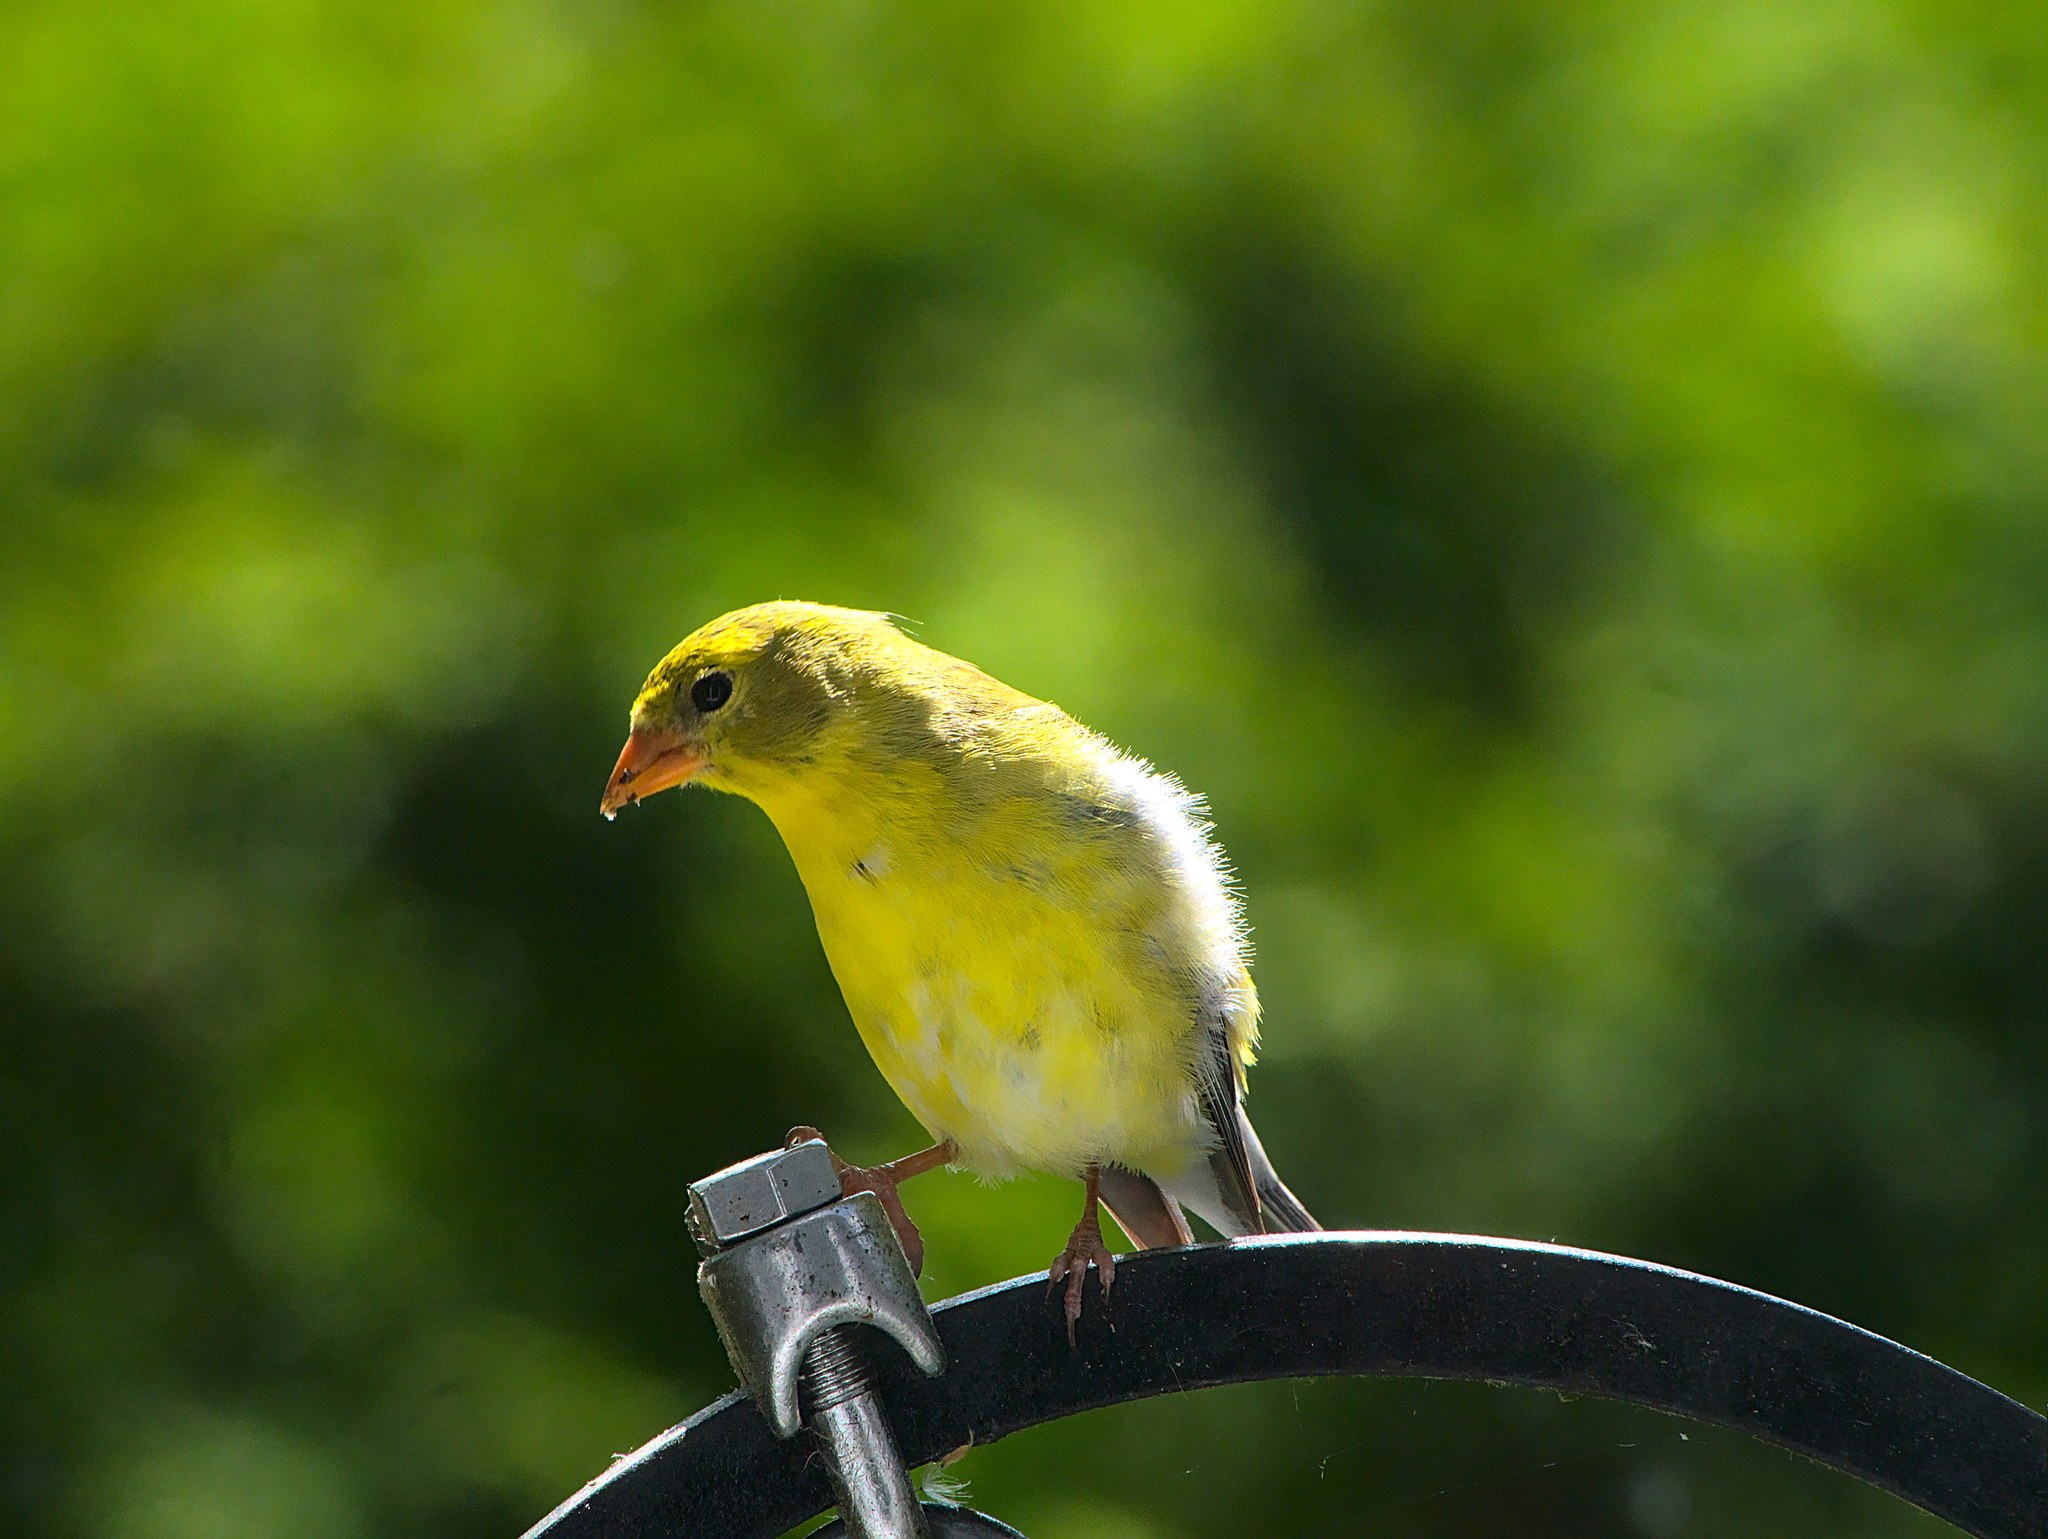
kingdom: Animalia
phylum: Chordata
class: Aves
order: Passeriformes
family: Fringillidae
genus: Spinus
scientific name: Spinus tristis
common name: American goldfinch
